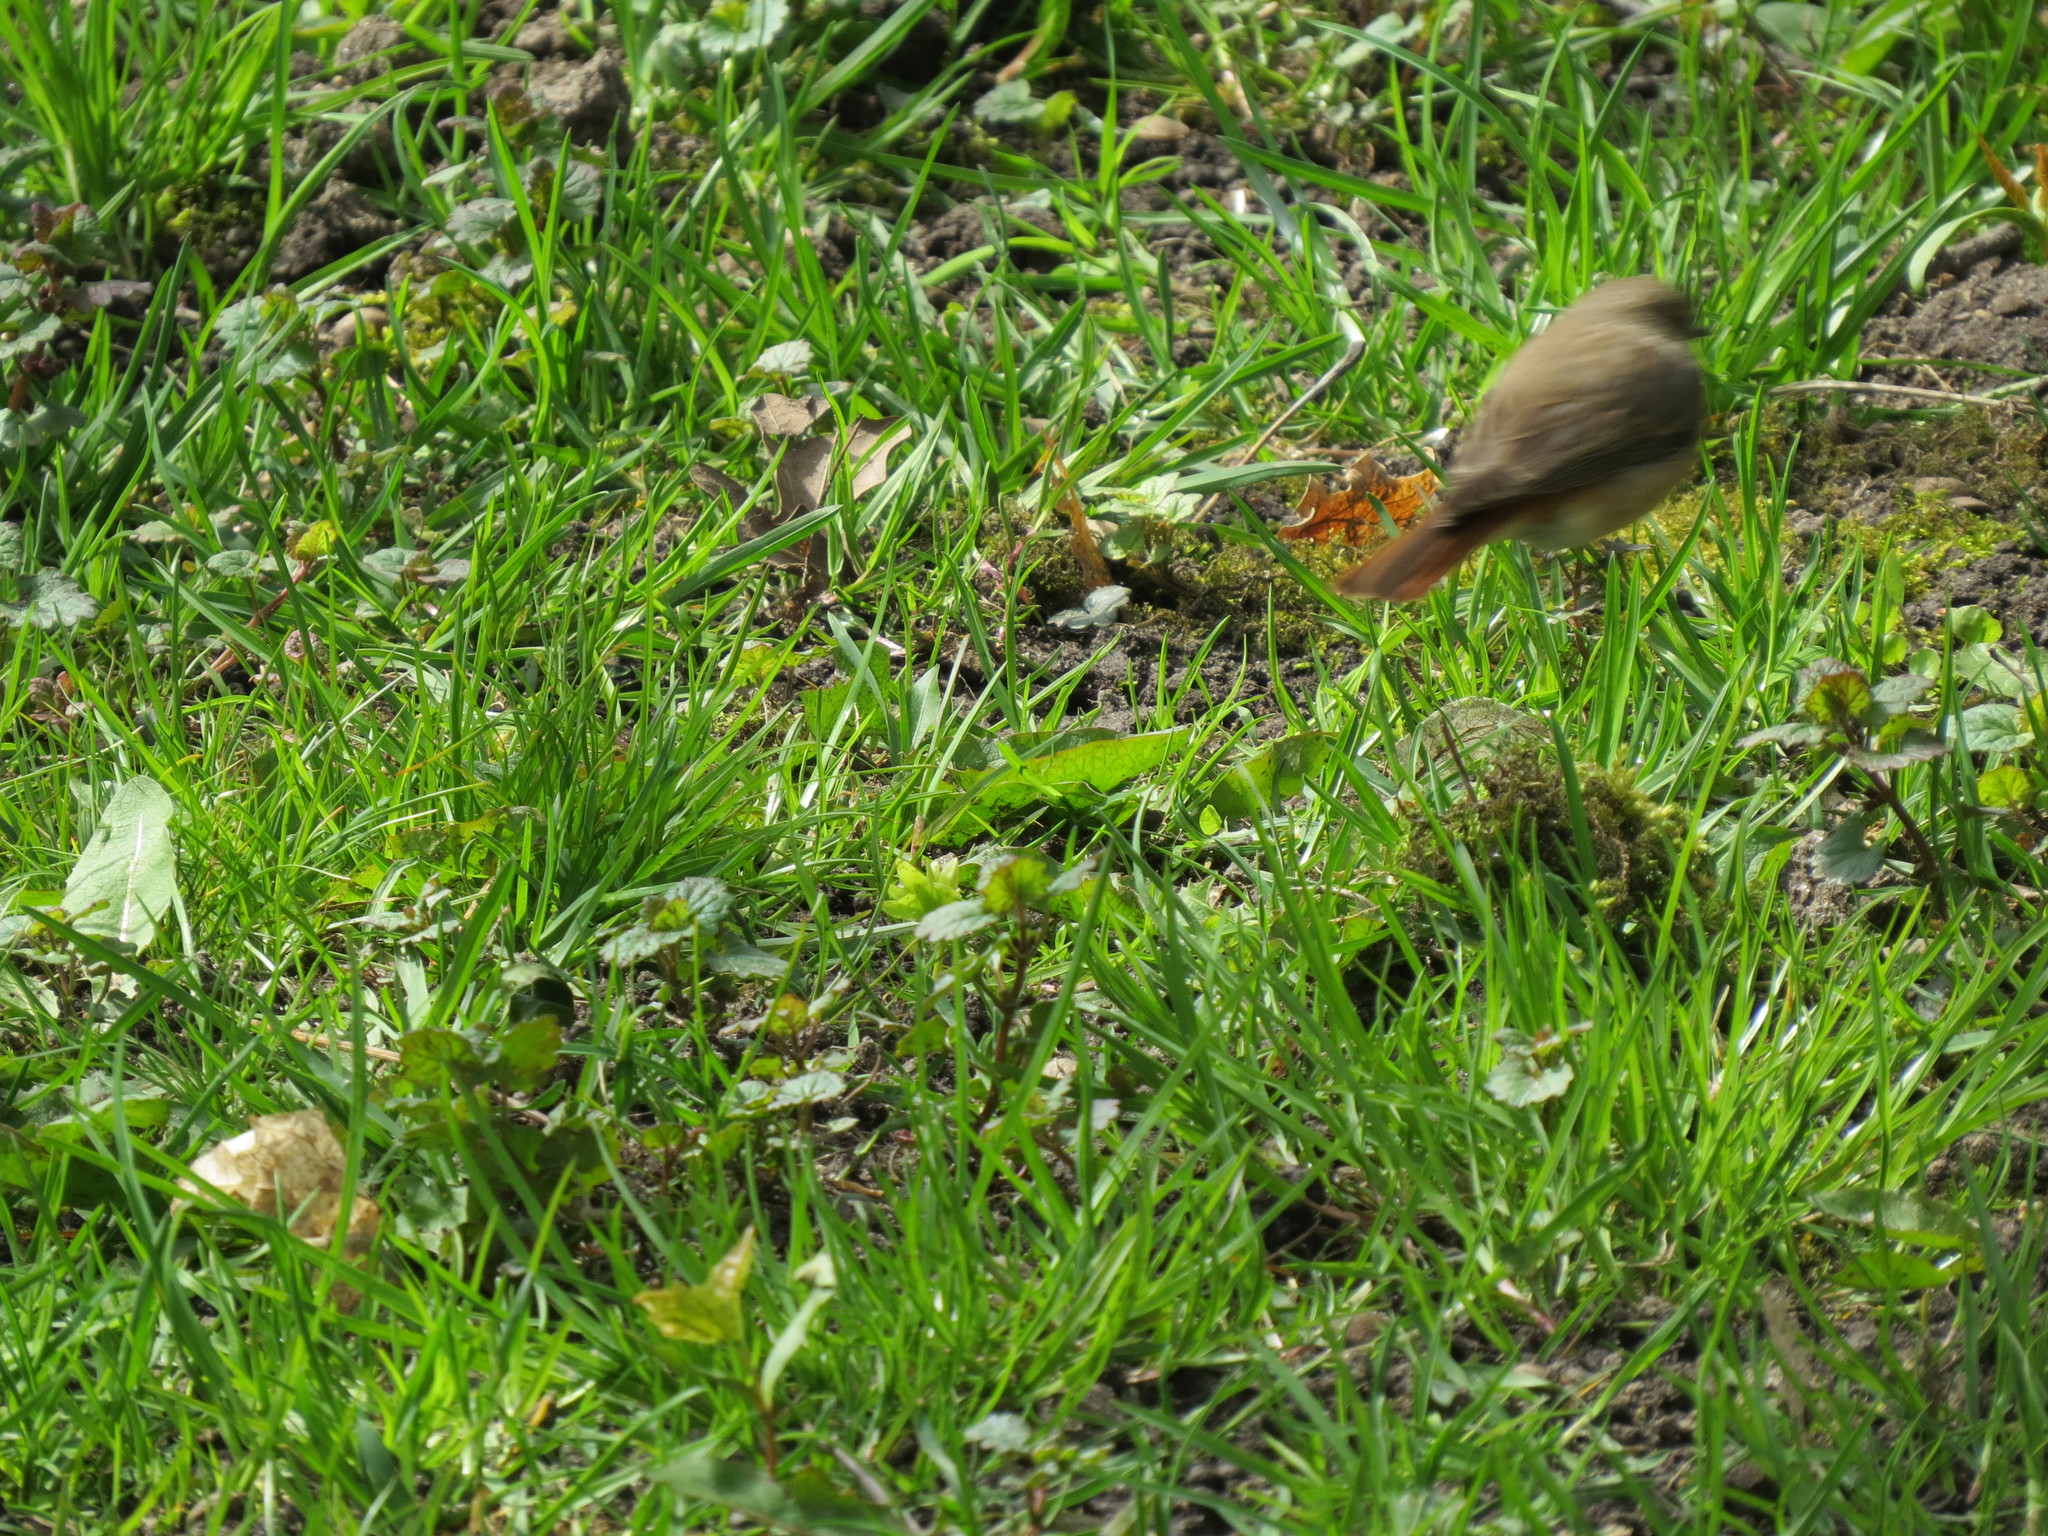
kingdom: Animalia
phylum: Chordata
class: Aves
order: Passeriformes
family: Muscicapidae
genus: Phoenicurus
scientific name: Phoenicurus phoenicurus
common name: Common redstart
